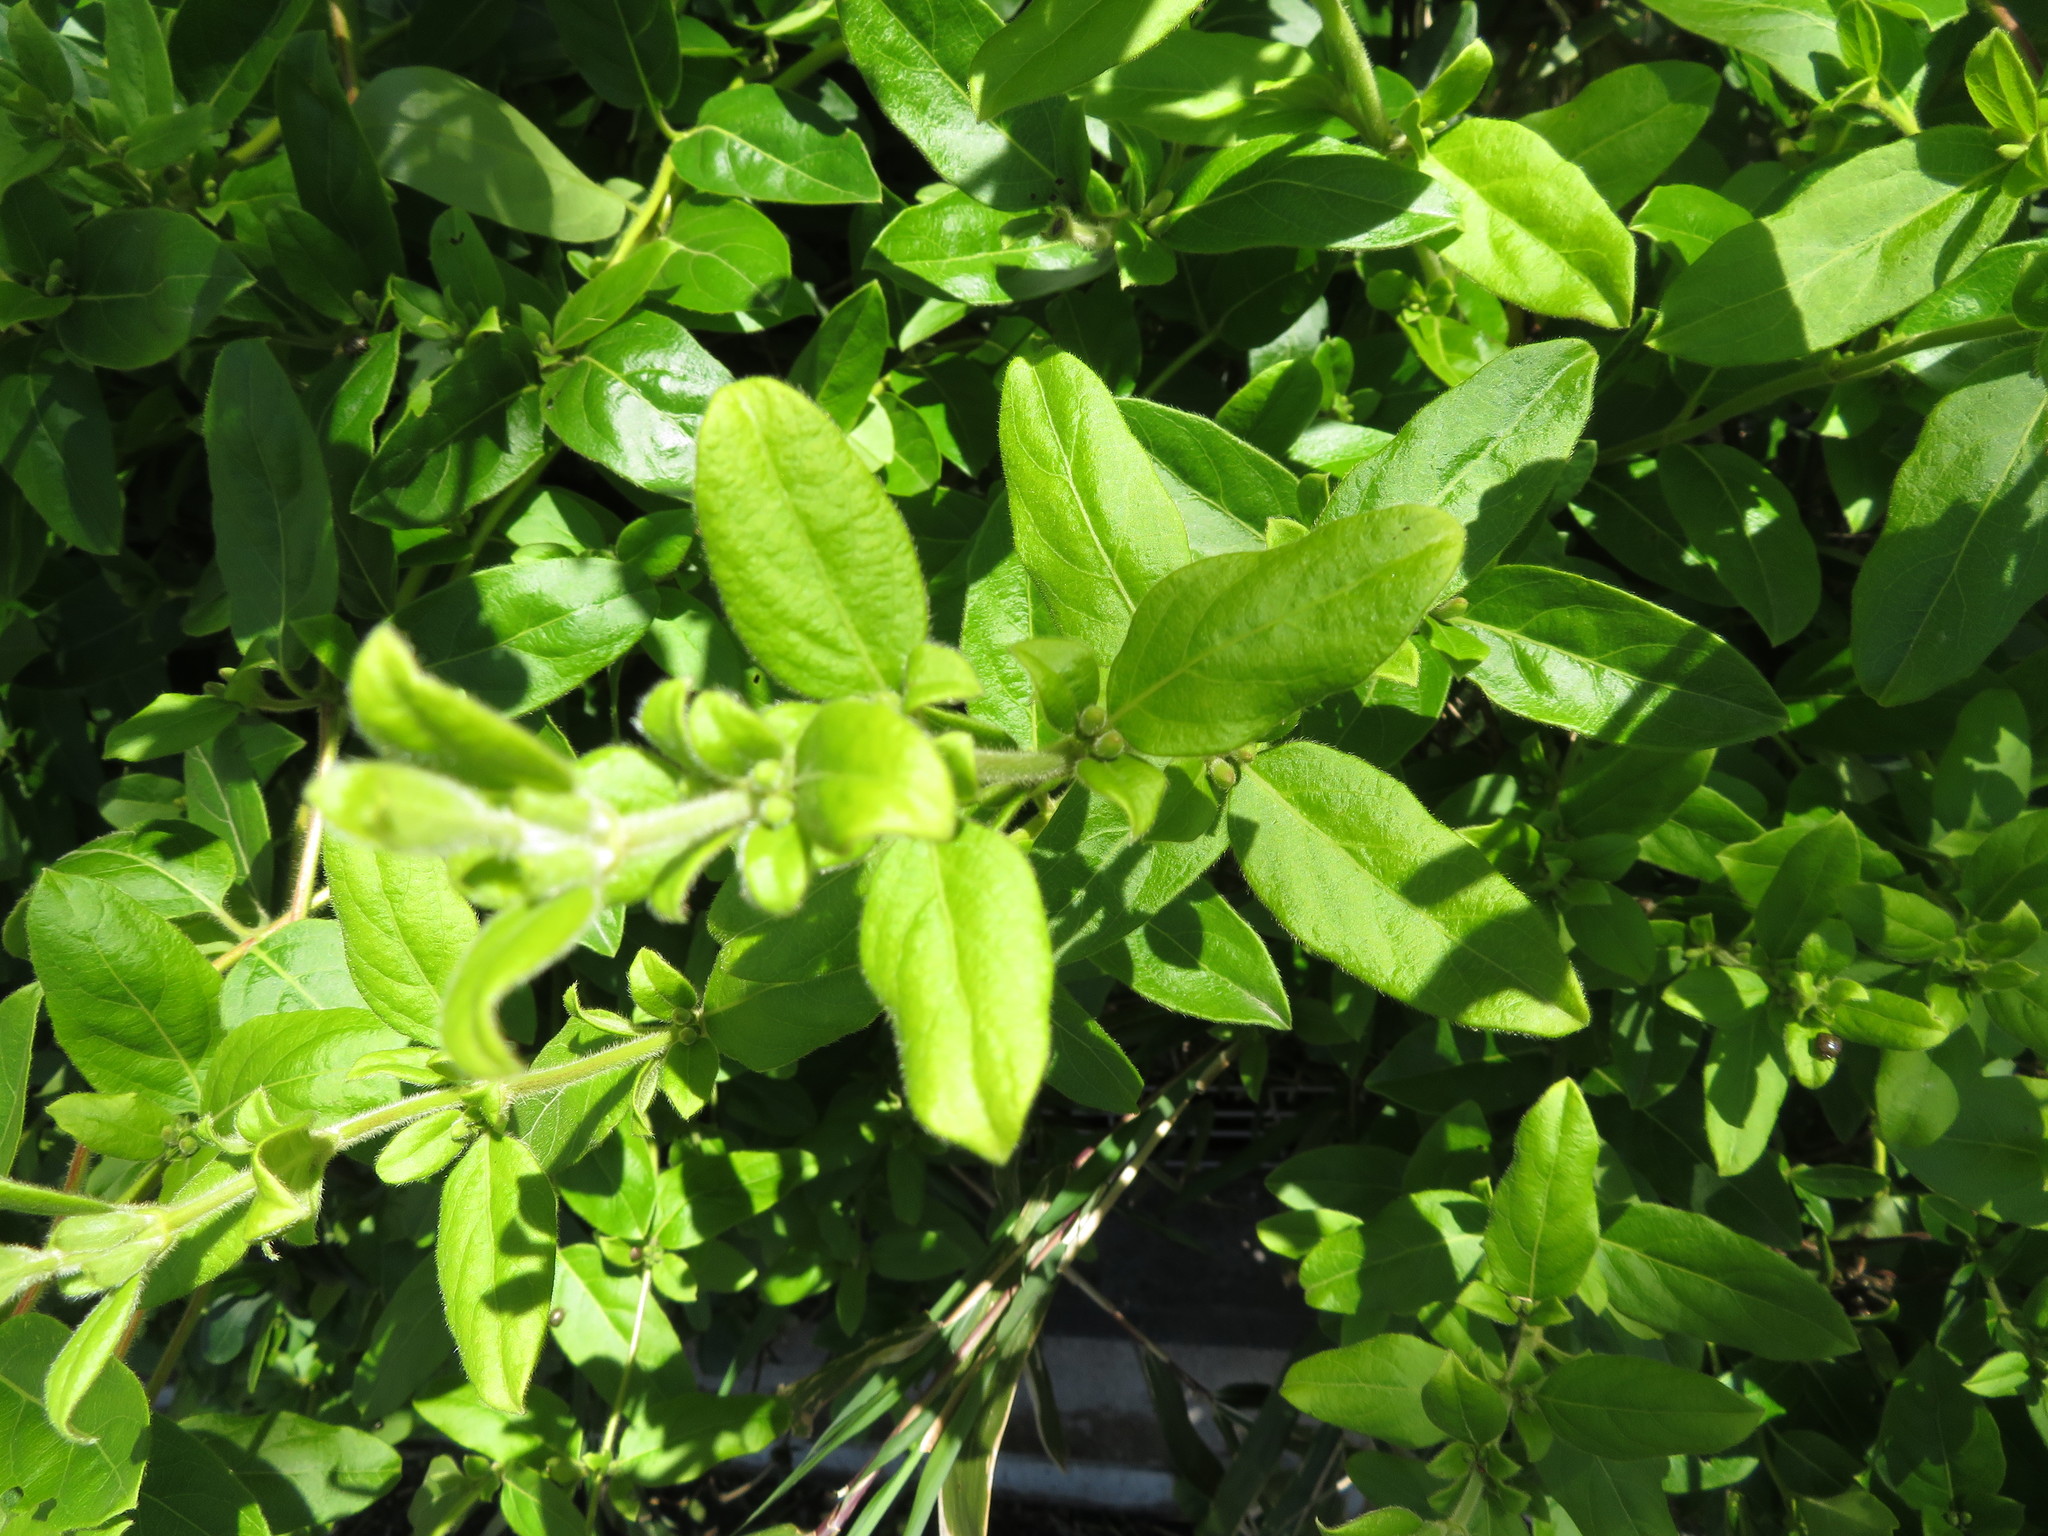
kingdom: Plantae
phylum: Tracheophyta
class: Magnoliopsida
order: Dipsacales
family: Caprifoliaceae
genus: Lonicera
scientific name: Lonicera japonica
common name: Japanese honeysuckle
